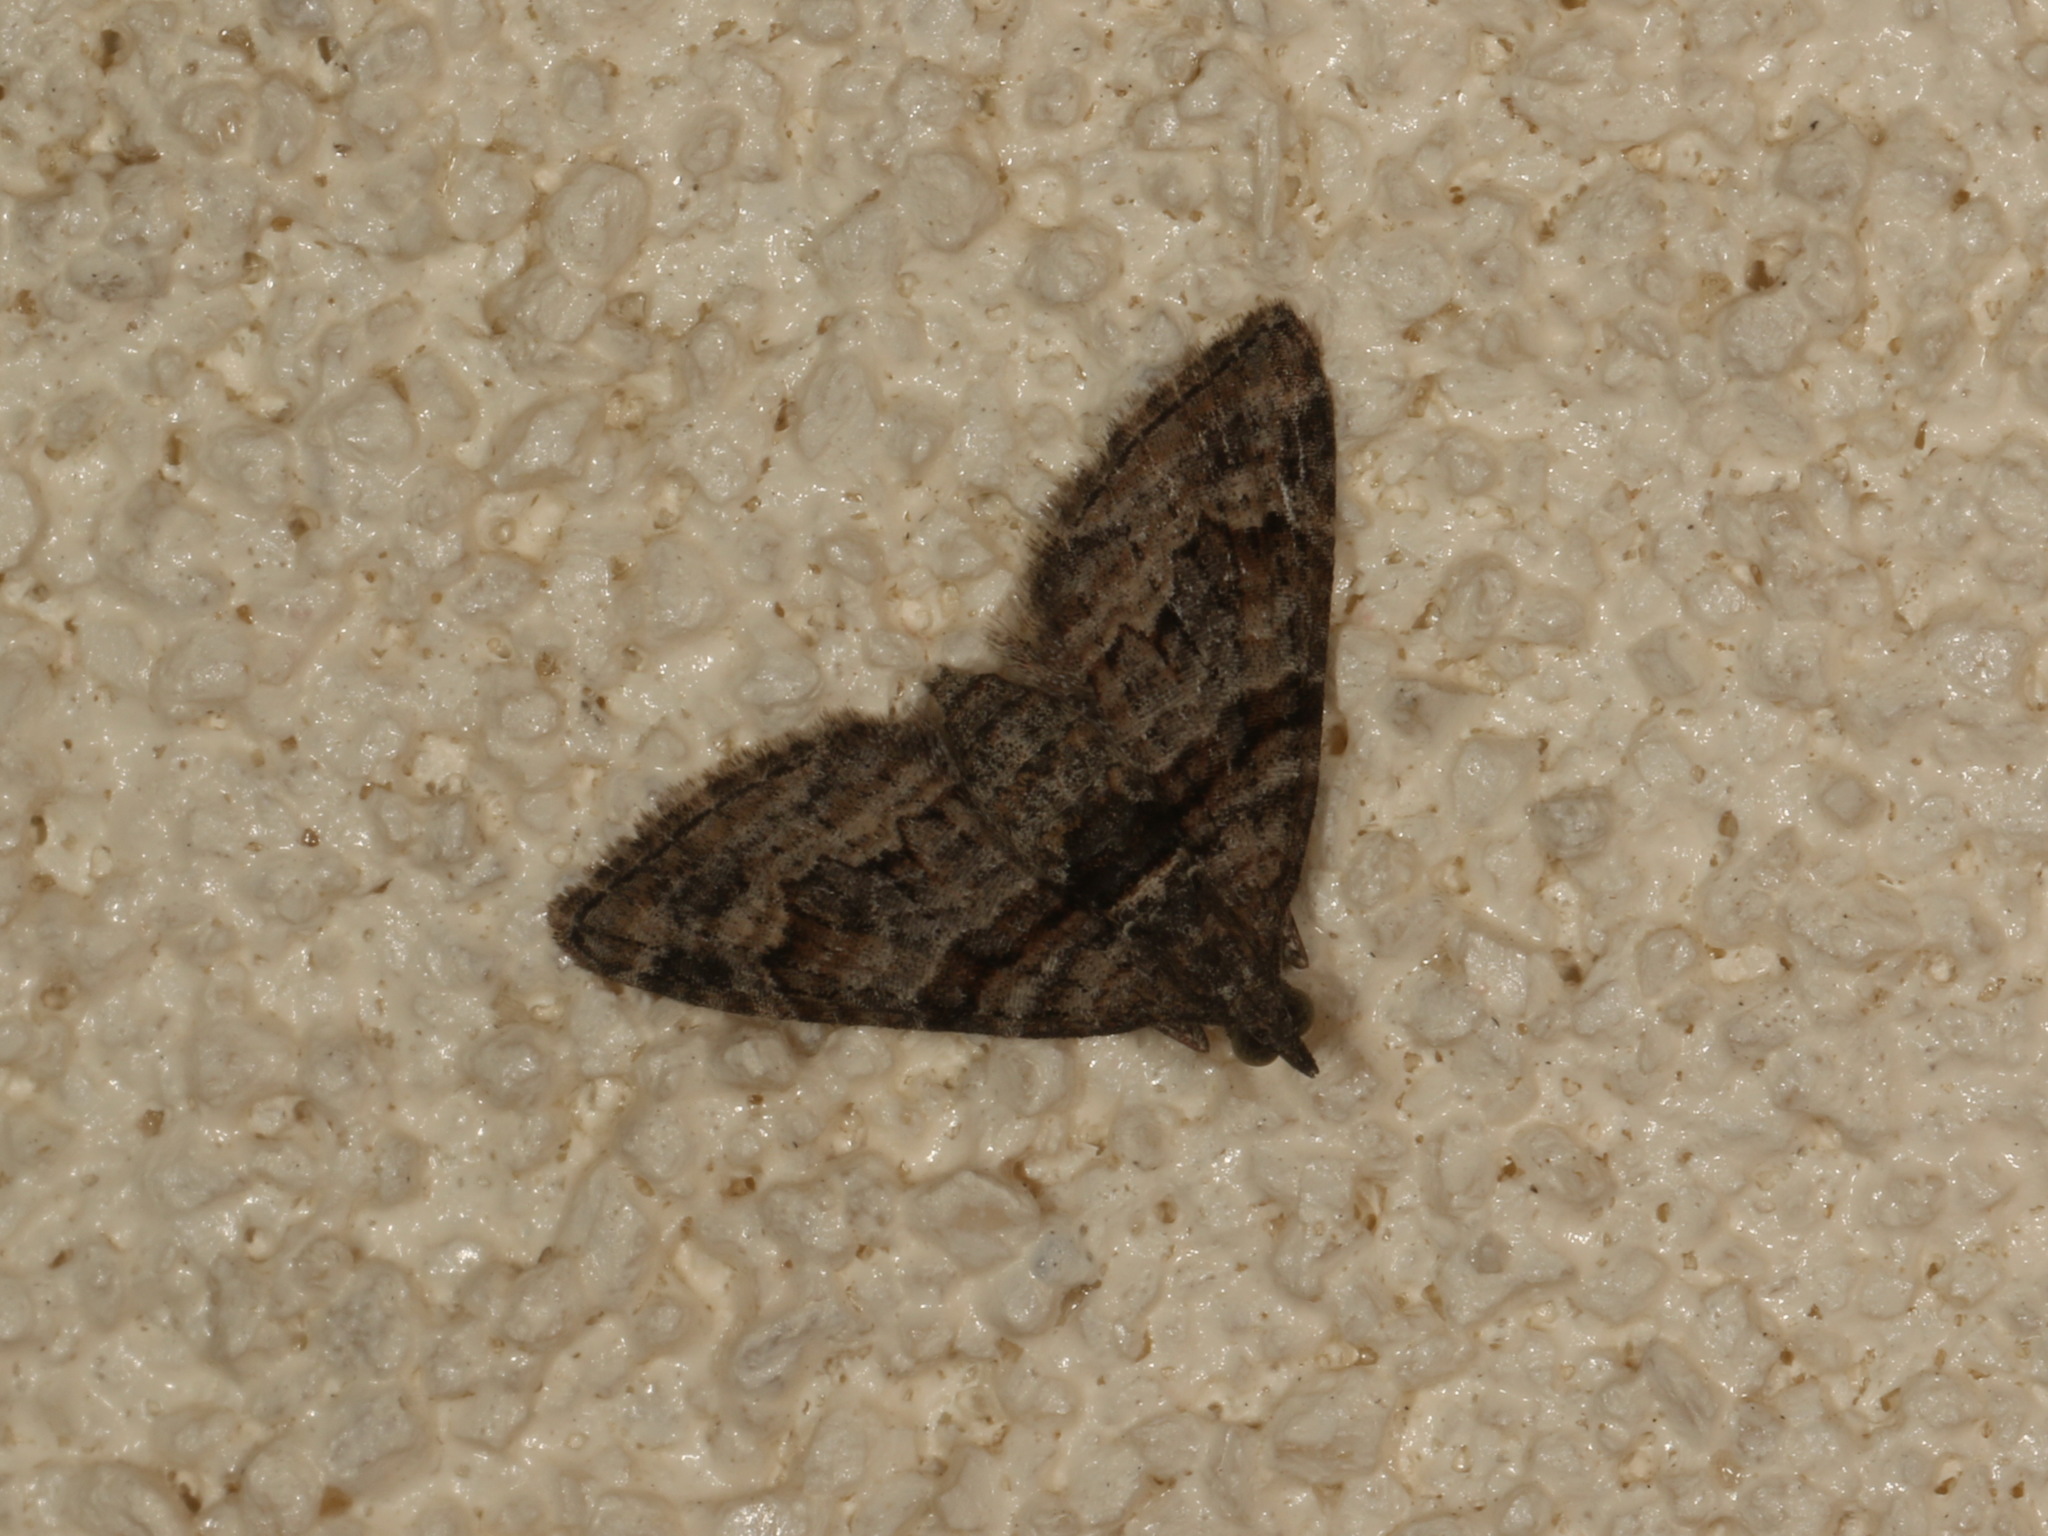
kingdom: Animalia
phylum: Arthropoda
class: Insecta
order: Lepidoptera
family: Geometridae
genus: Phrissogonus
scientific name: Phrissogonus laticostata
